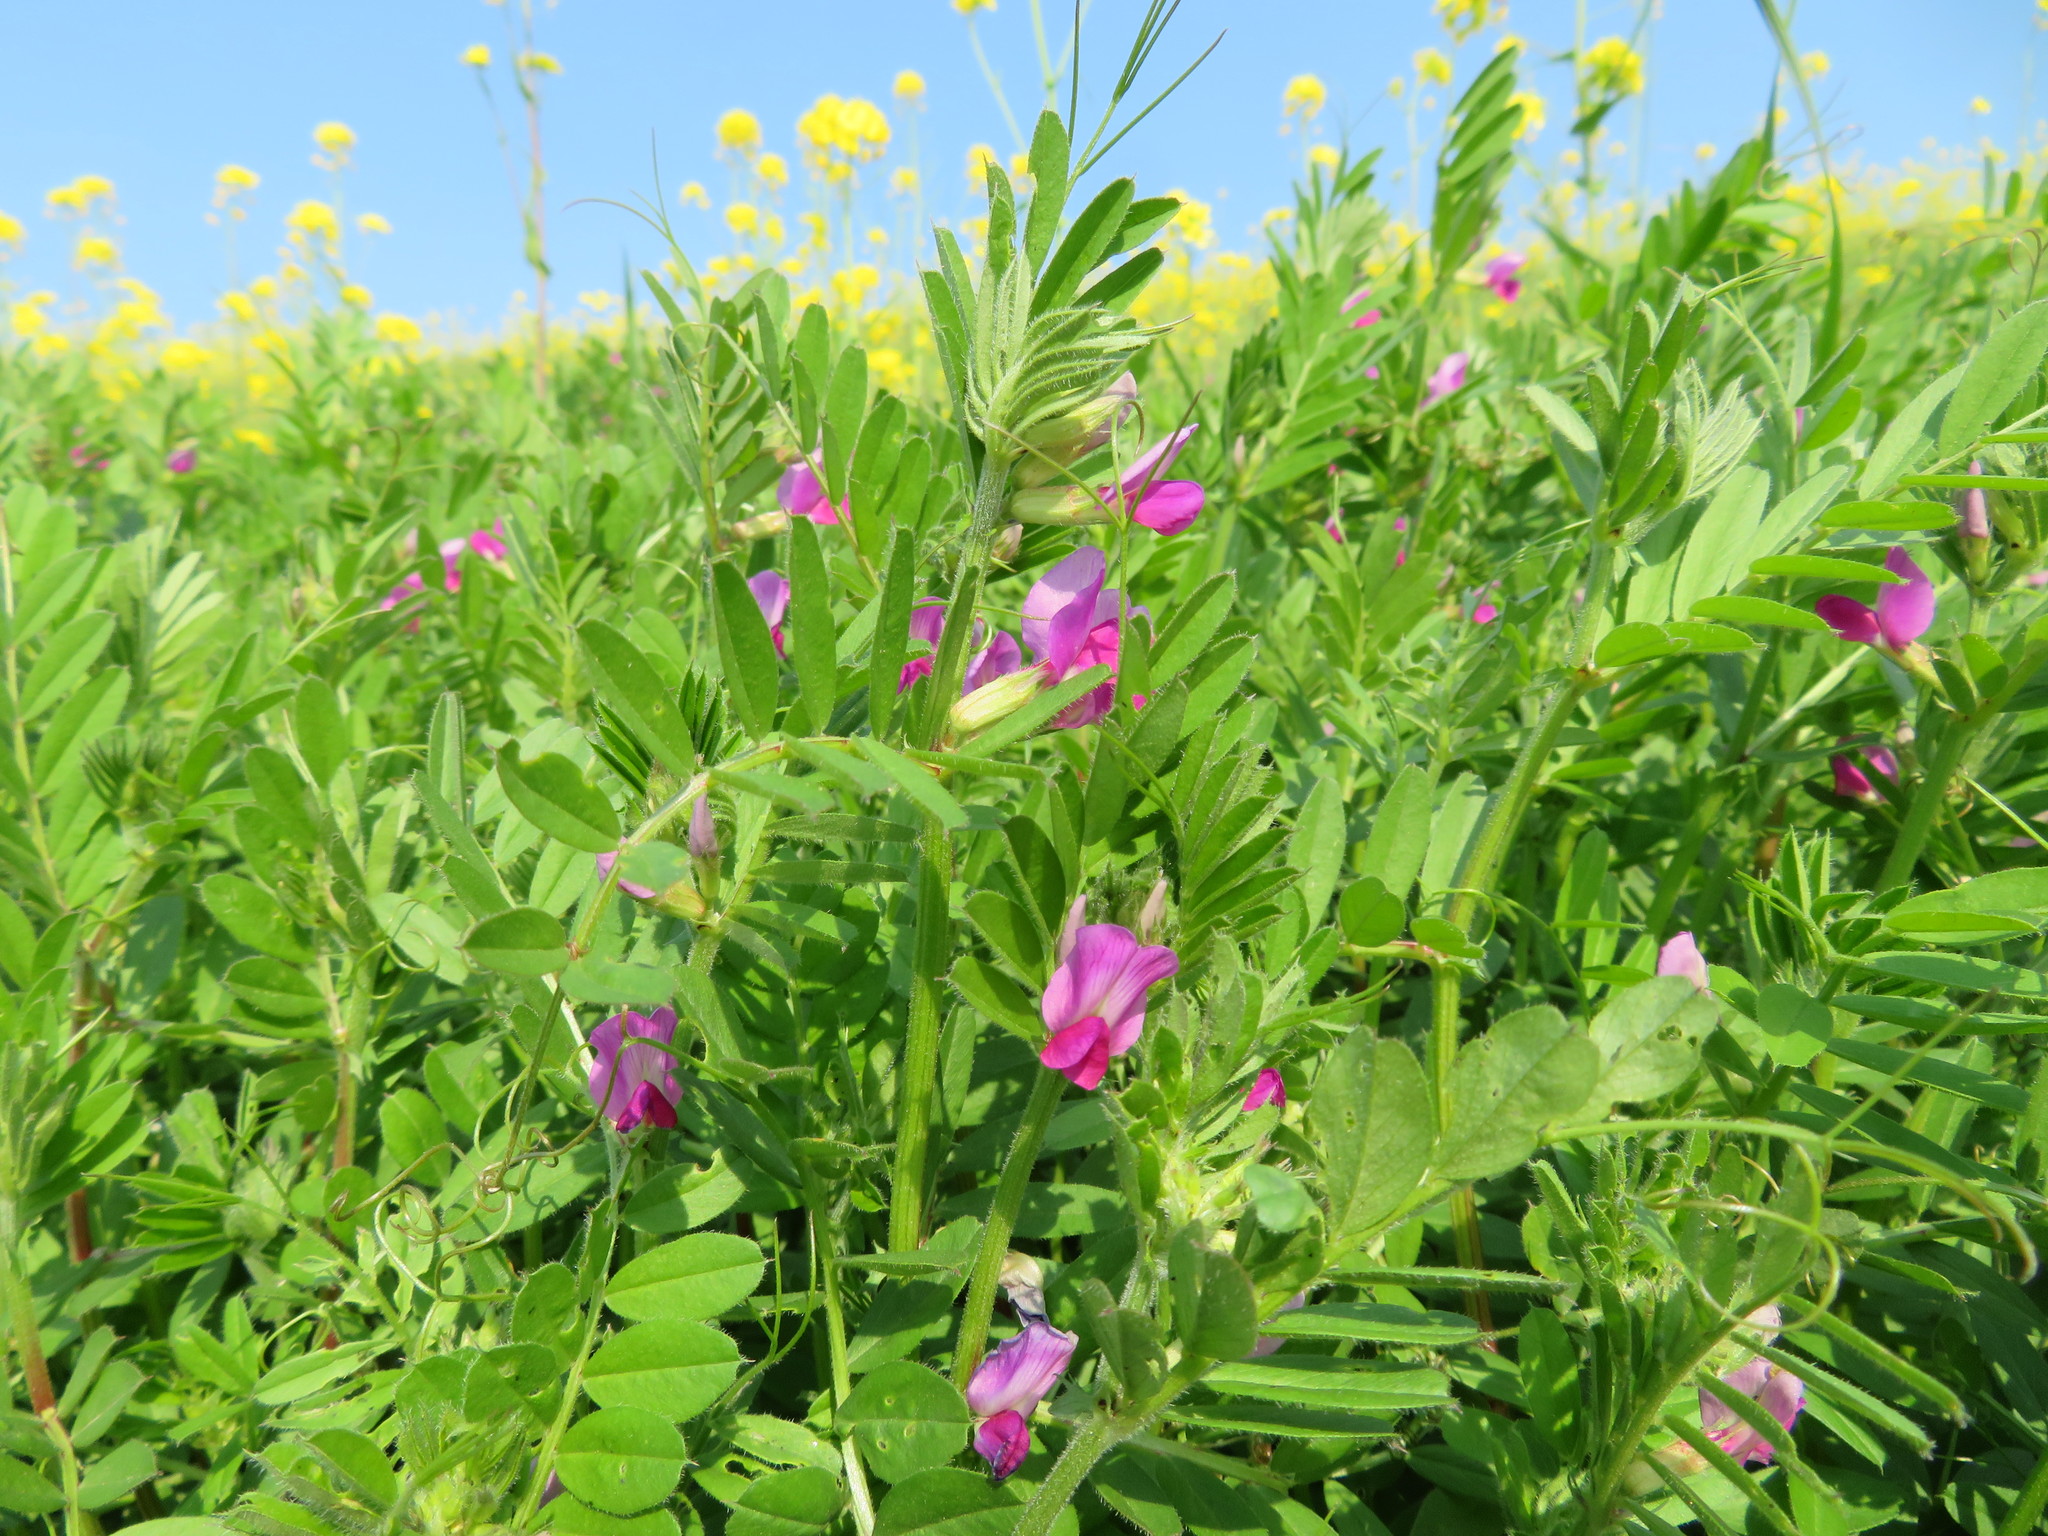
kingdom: Plantae
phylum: Tracheophyta
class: Magnoliopsida
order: Fabales
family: Fabaceae
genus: Vicia
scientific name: Vicia sativa
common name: Garden vetch
